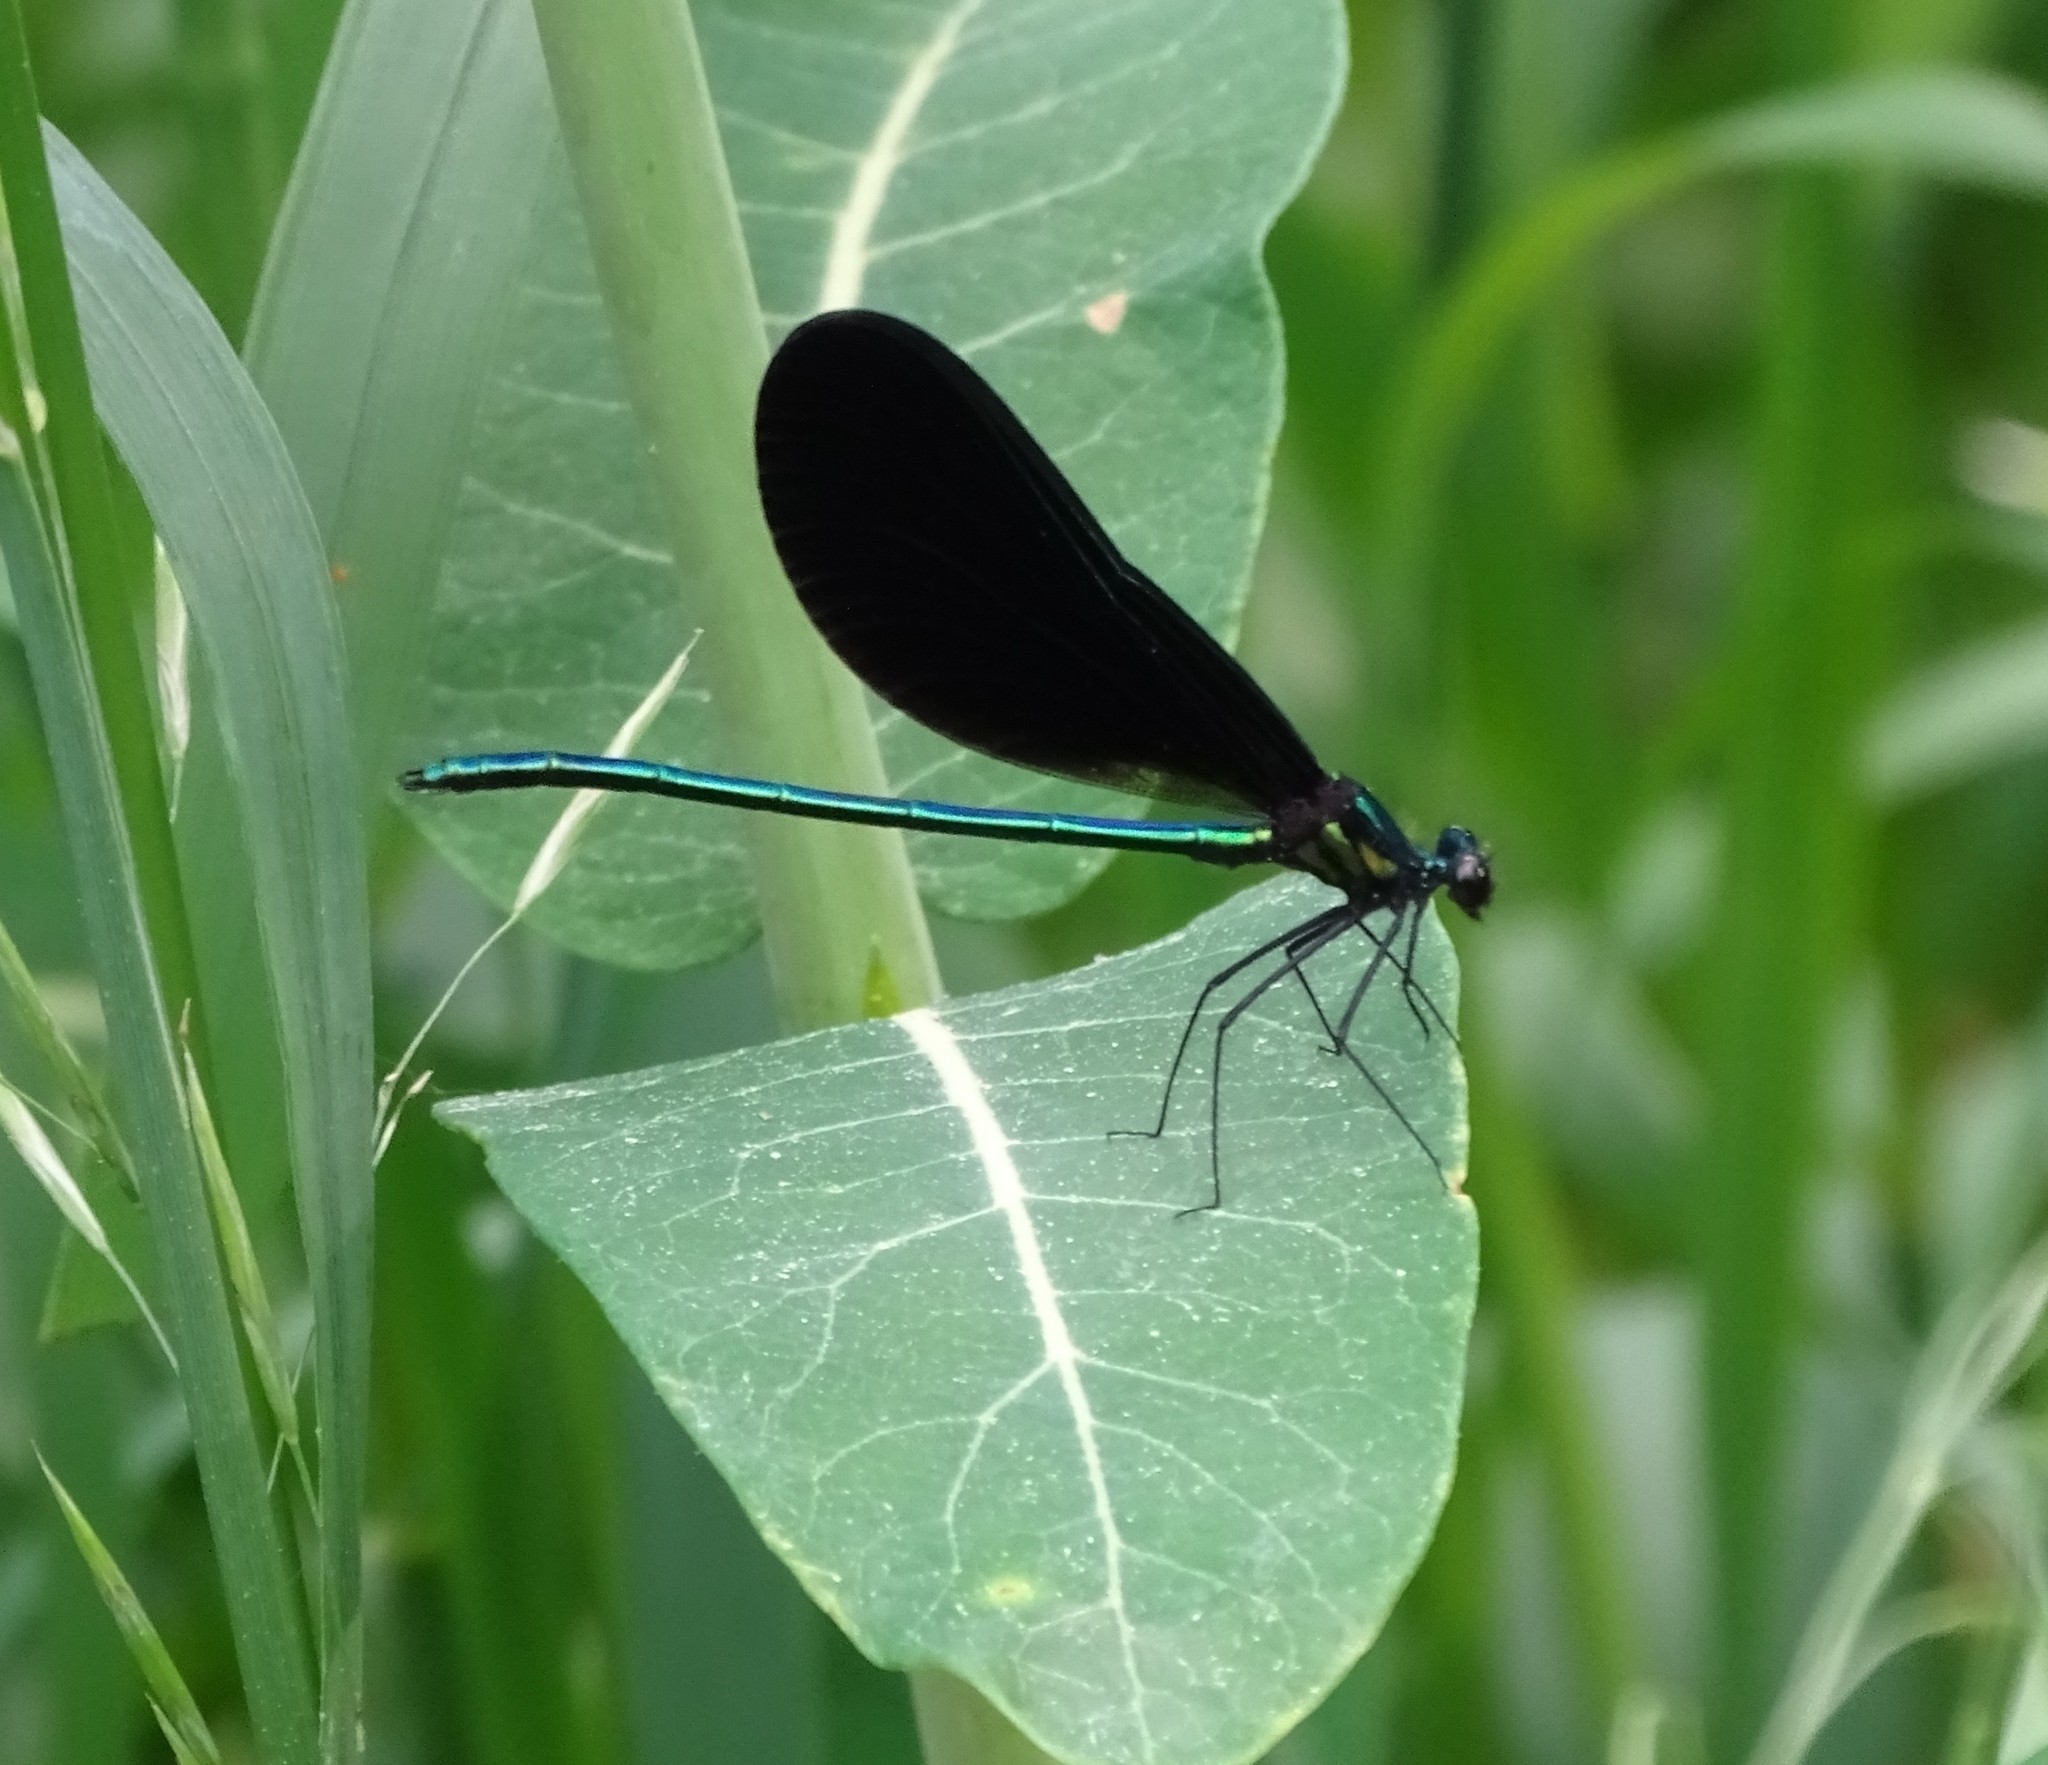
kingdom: Animalia
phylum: Arthropoda
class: Insecta
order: Odonata
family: Calopterygidae
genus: Calopteryx
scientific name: Calopteryx maculata
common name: Ebony jewelwing
